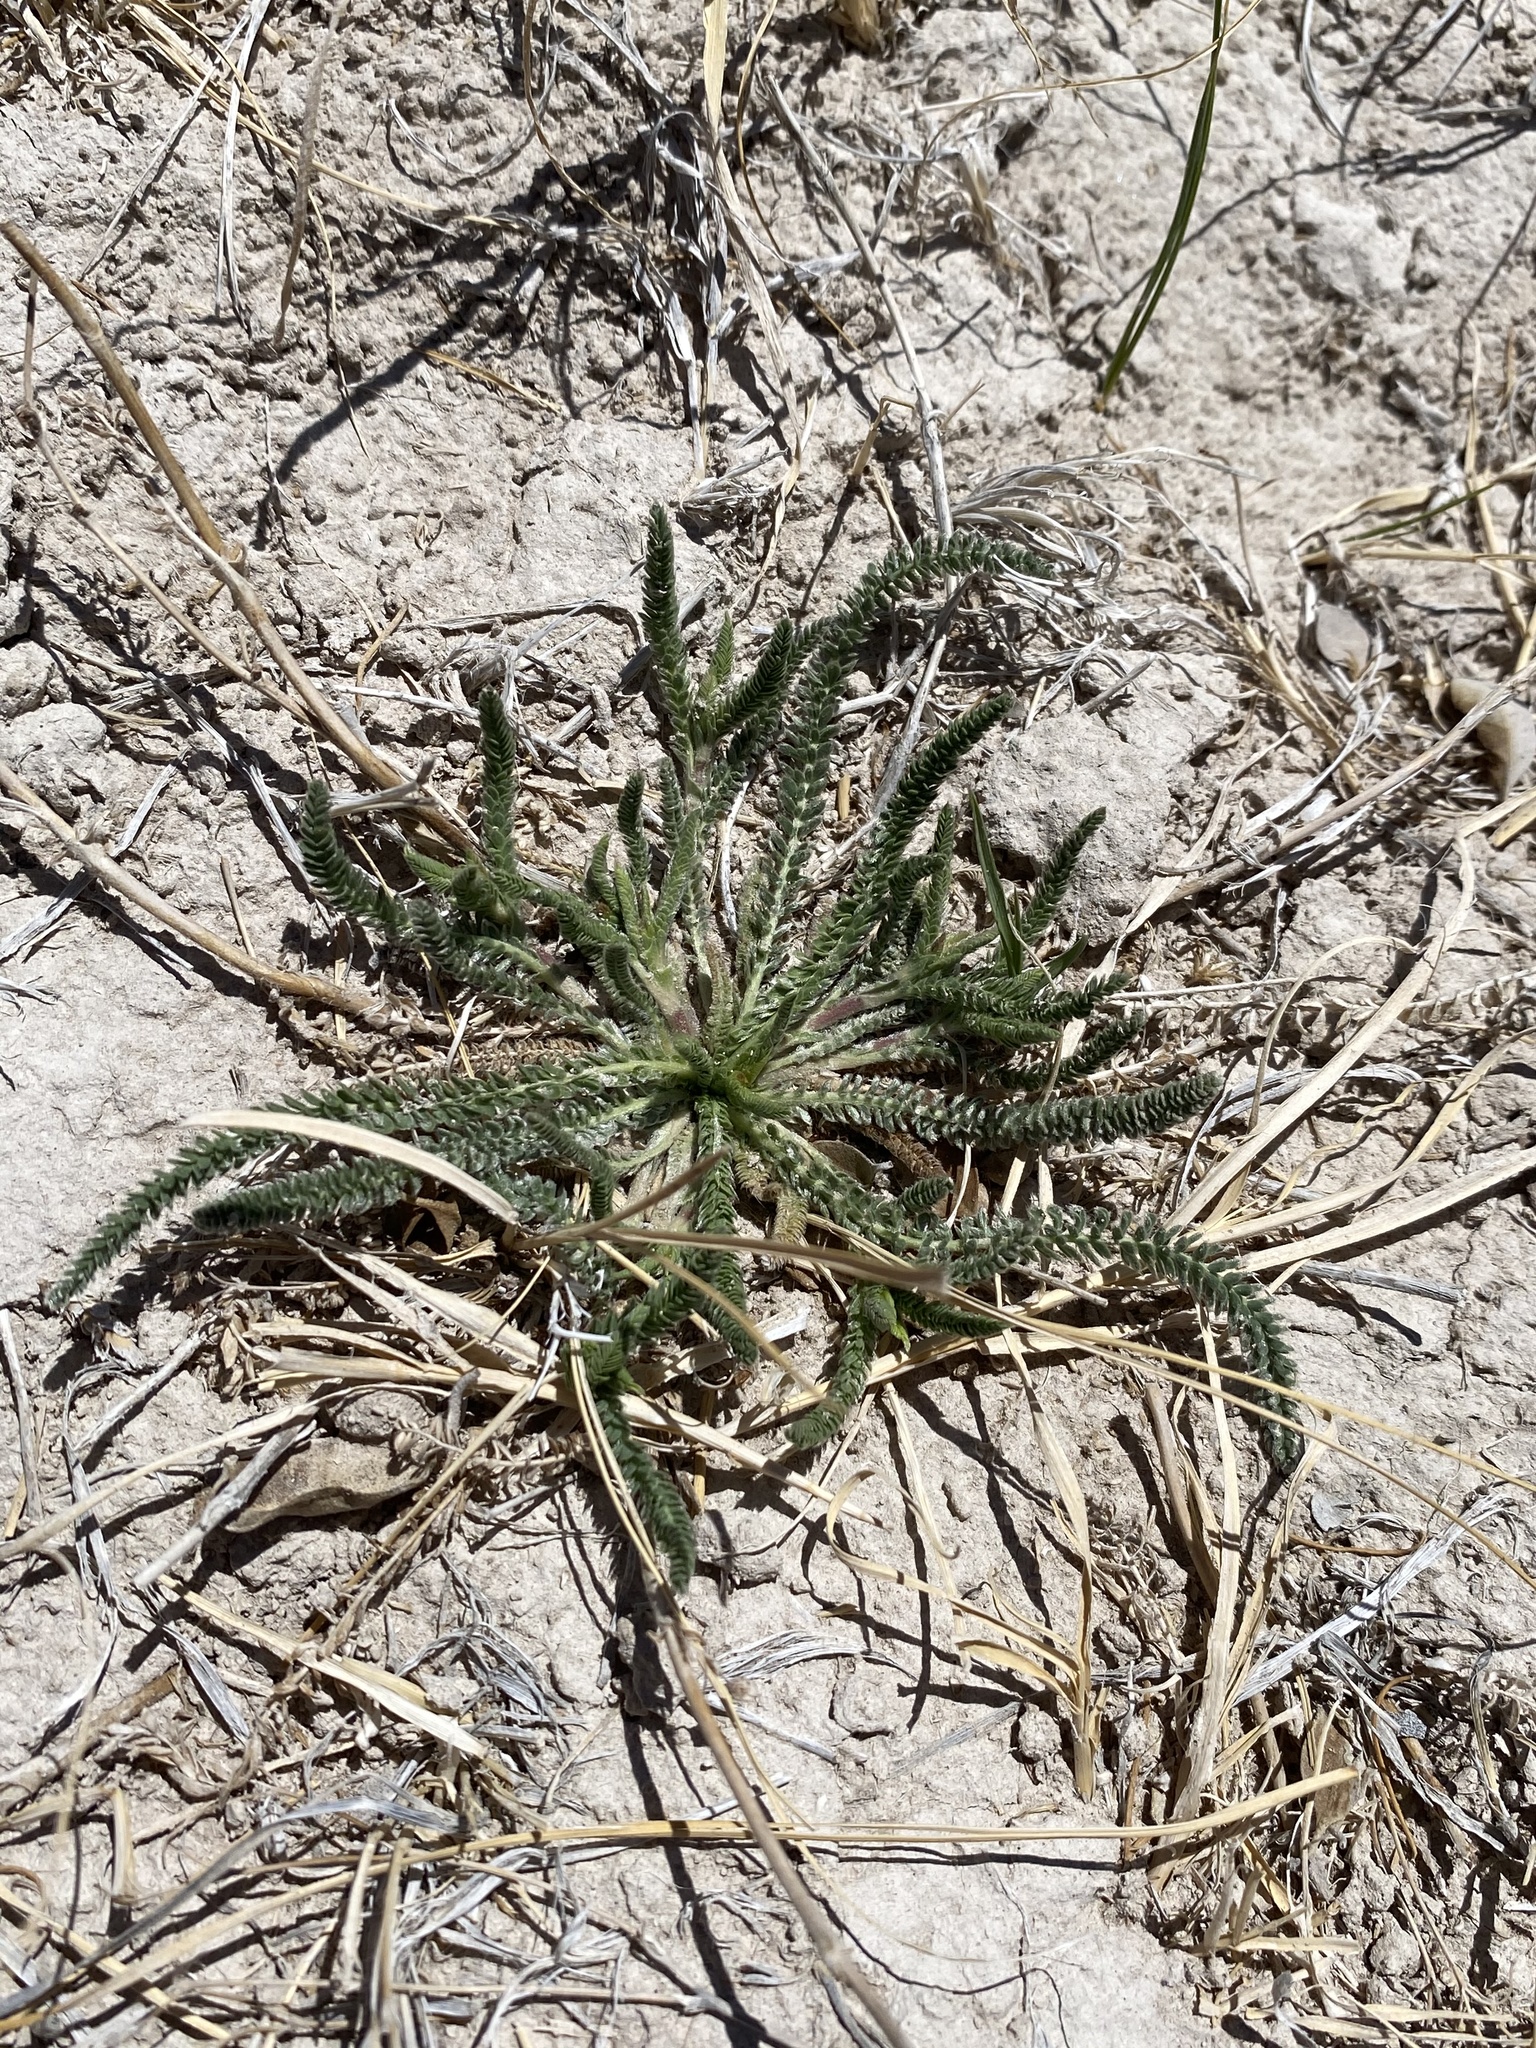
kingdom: Plantae
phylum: Tracheophyta
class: Magnoliopsida
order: Rosales
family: Rosaceae
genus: Potentilla
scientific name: Potentilla kingii
